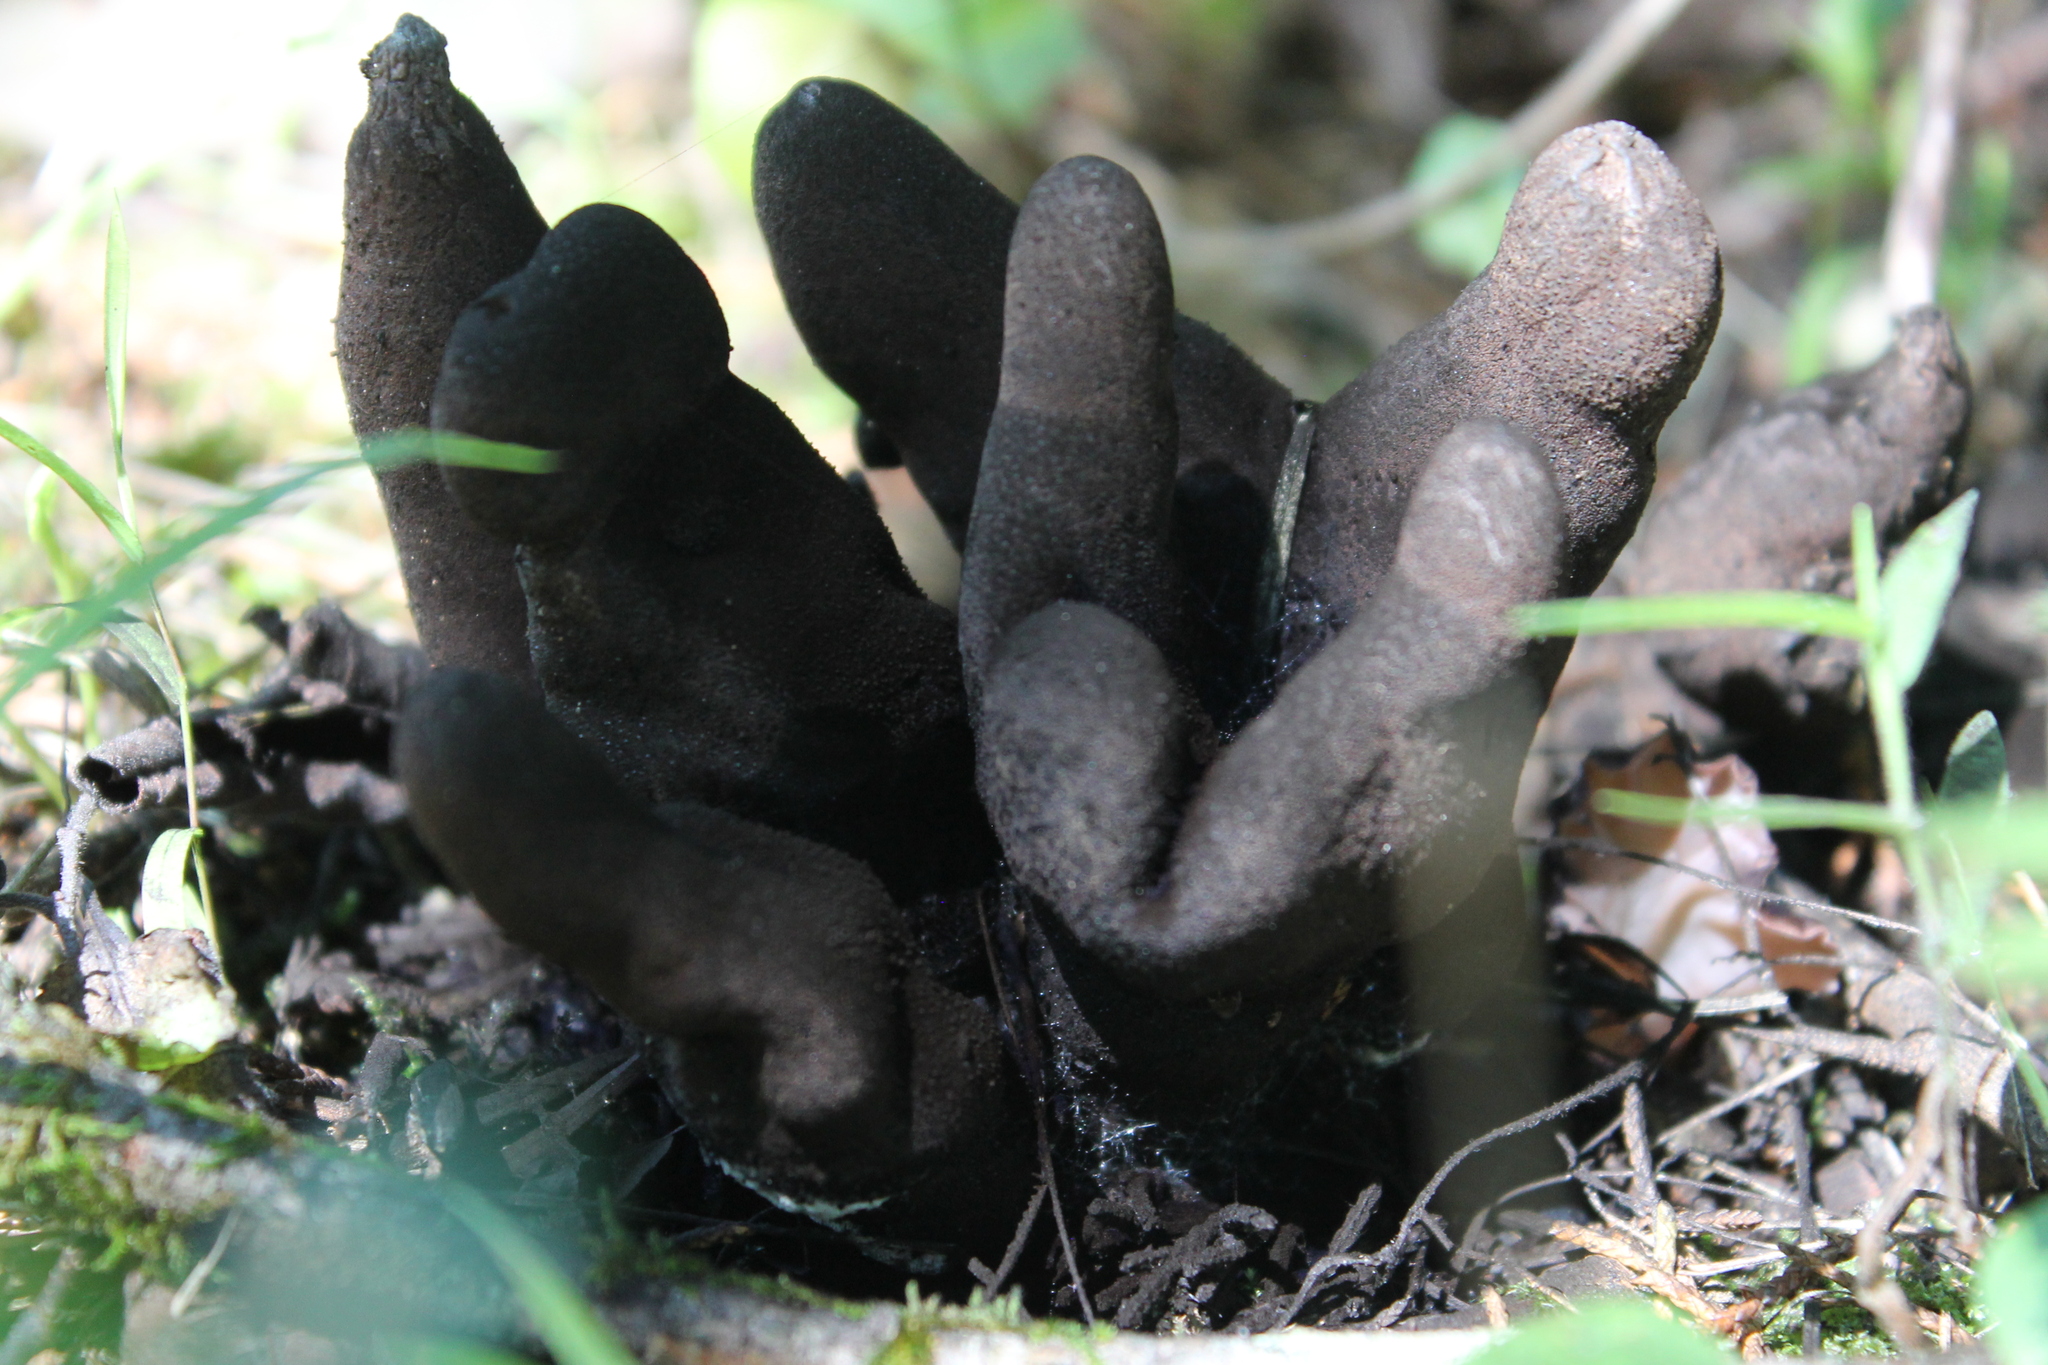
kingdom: Fungi
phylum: Ascomycota
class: Sordariomycetes
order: Xylariales
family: Xylariaceae
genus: Xylaria
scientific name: Xylaria polymorpha
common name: Dead man's fingers
